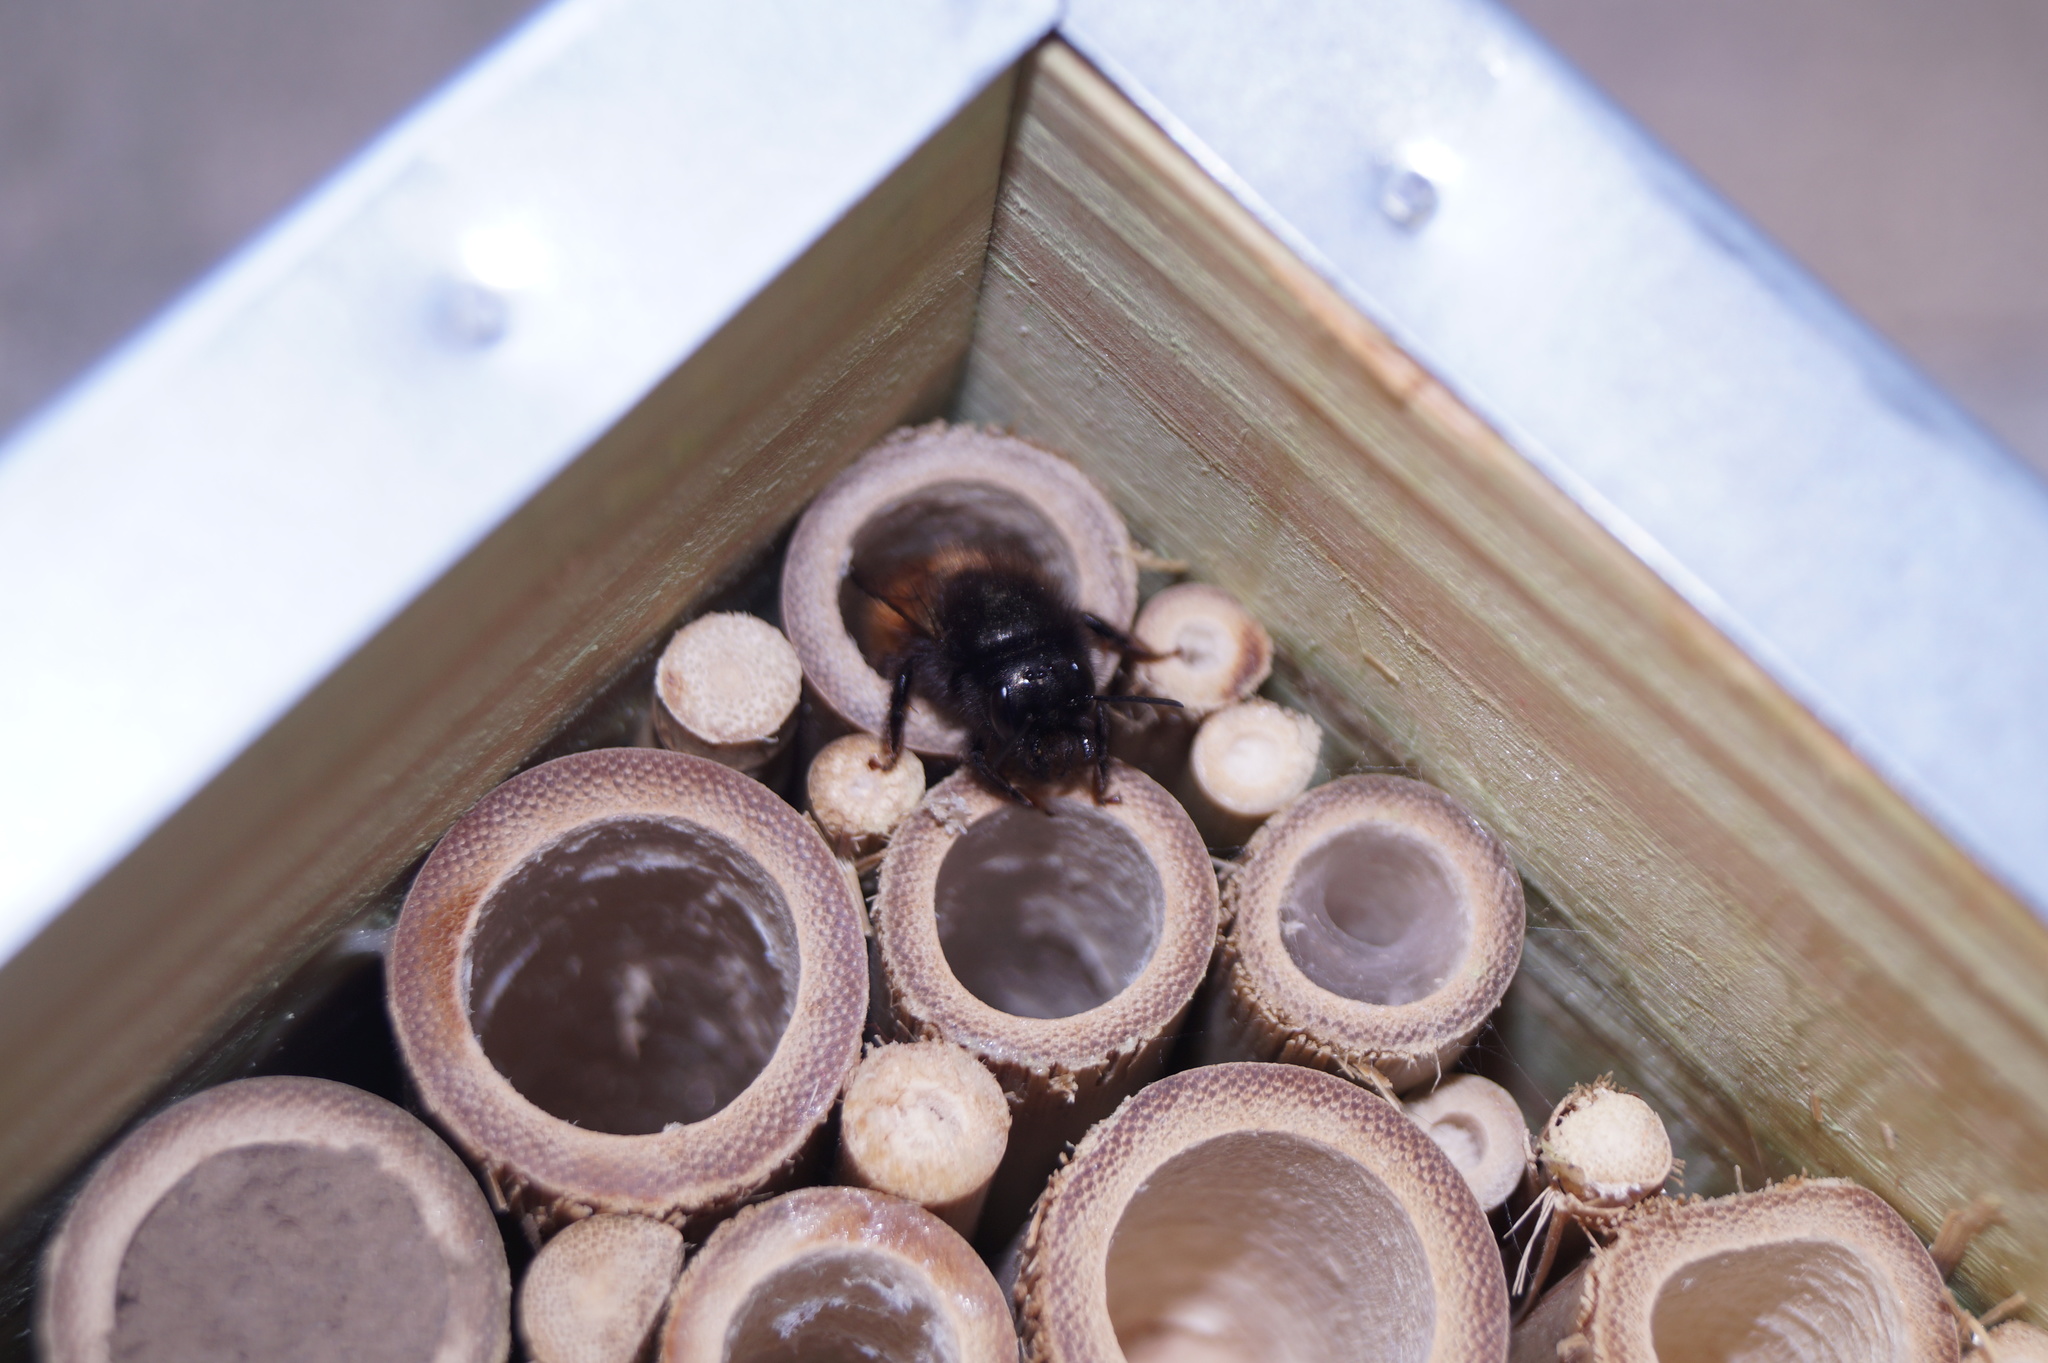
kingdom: Animalia
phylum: Arthropoda
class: Insecta
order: Hymenoptera
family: Megachilidae
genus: Osmia
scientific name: Osmia cornuta
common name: Mason bee
